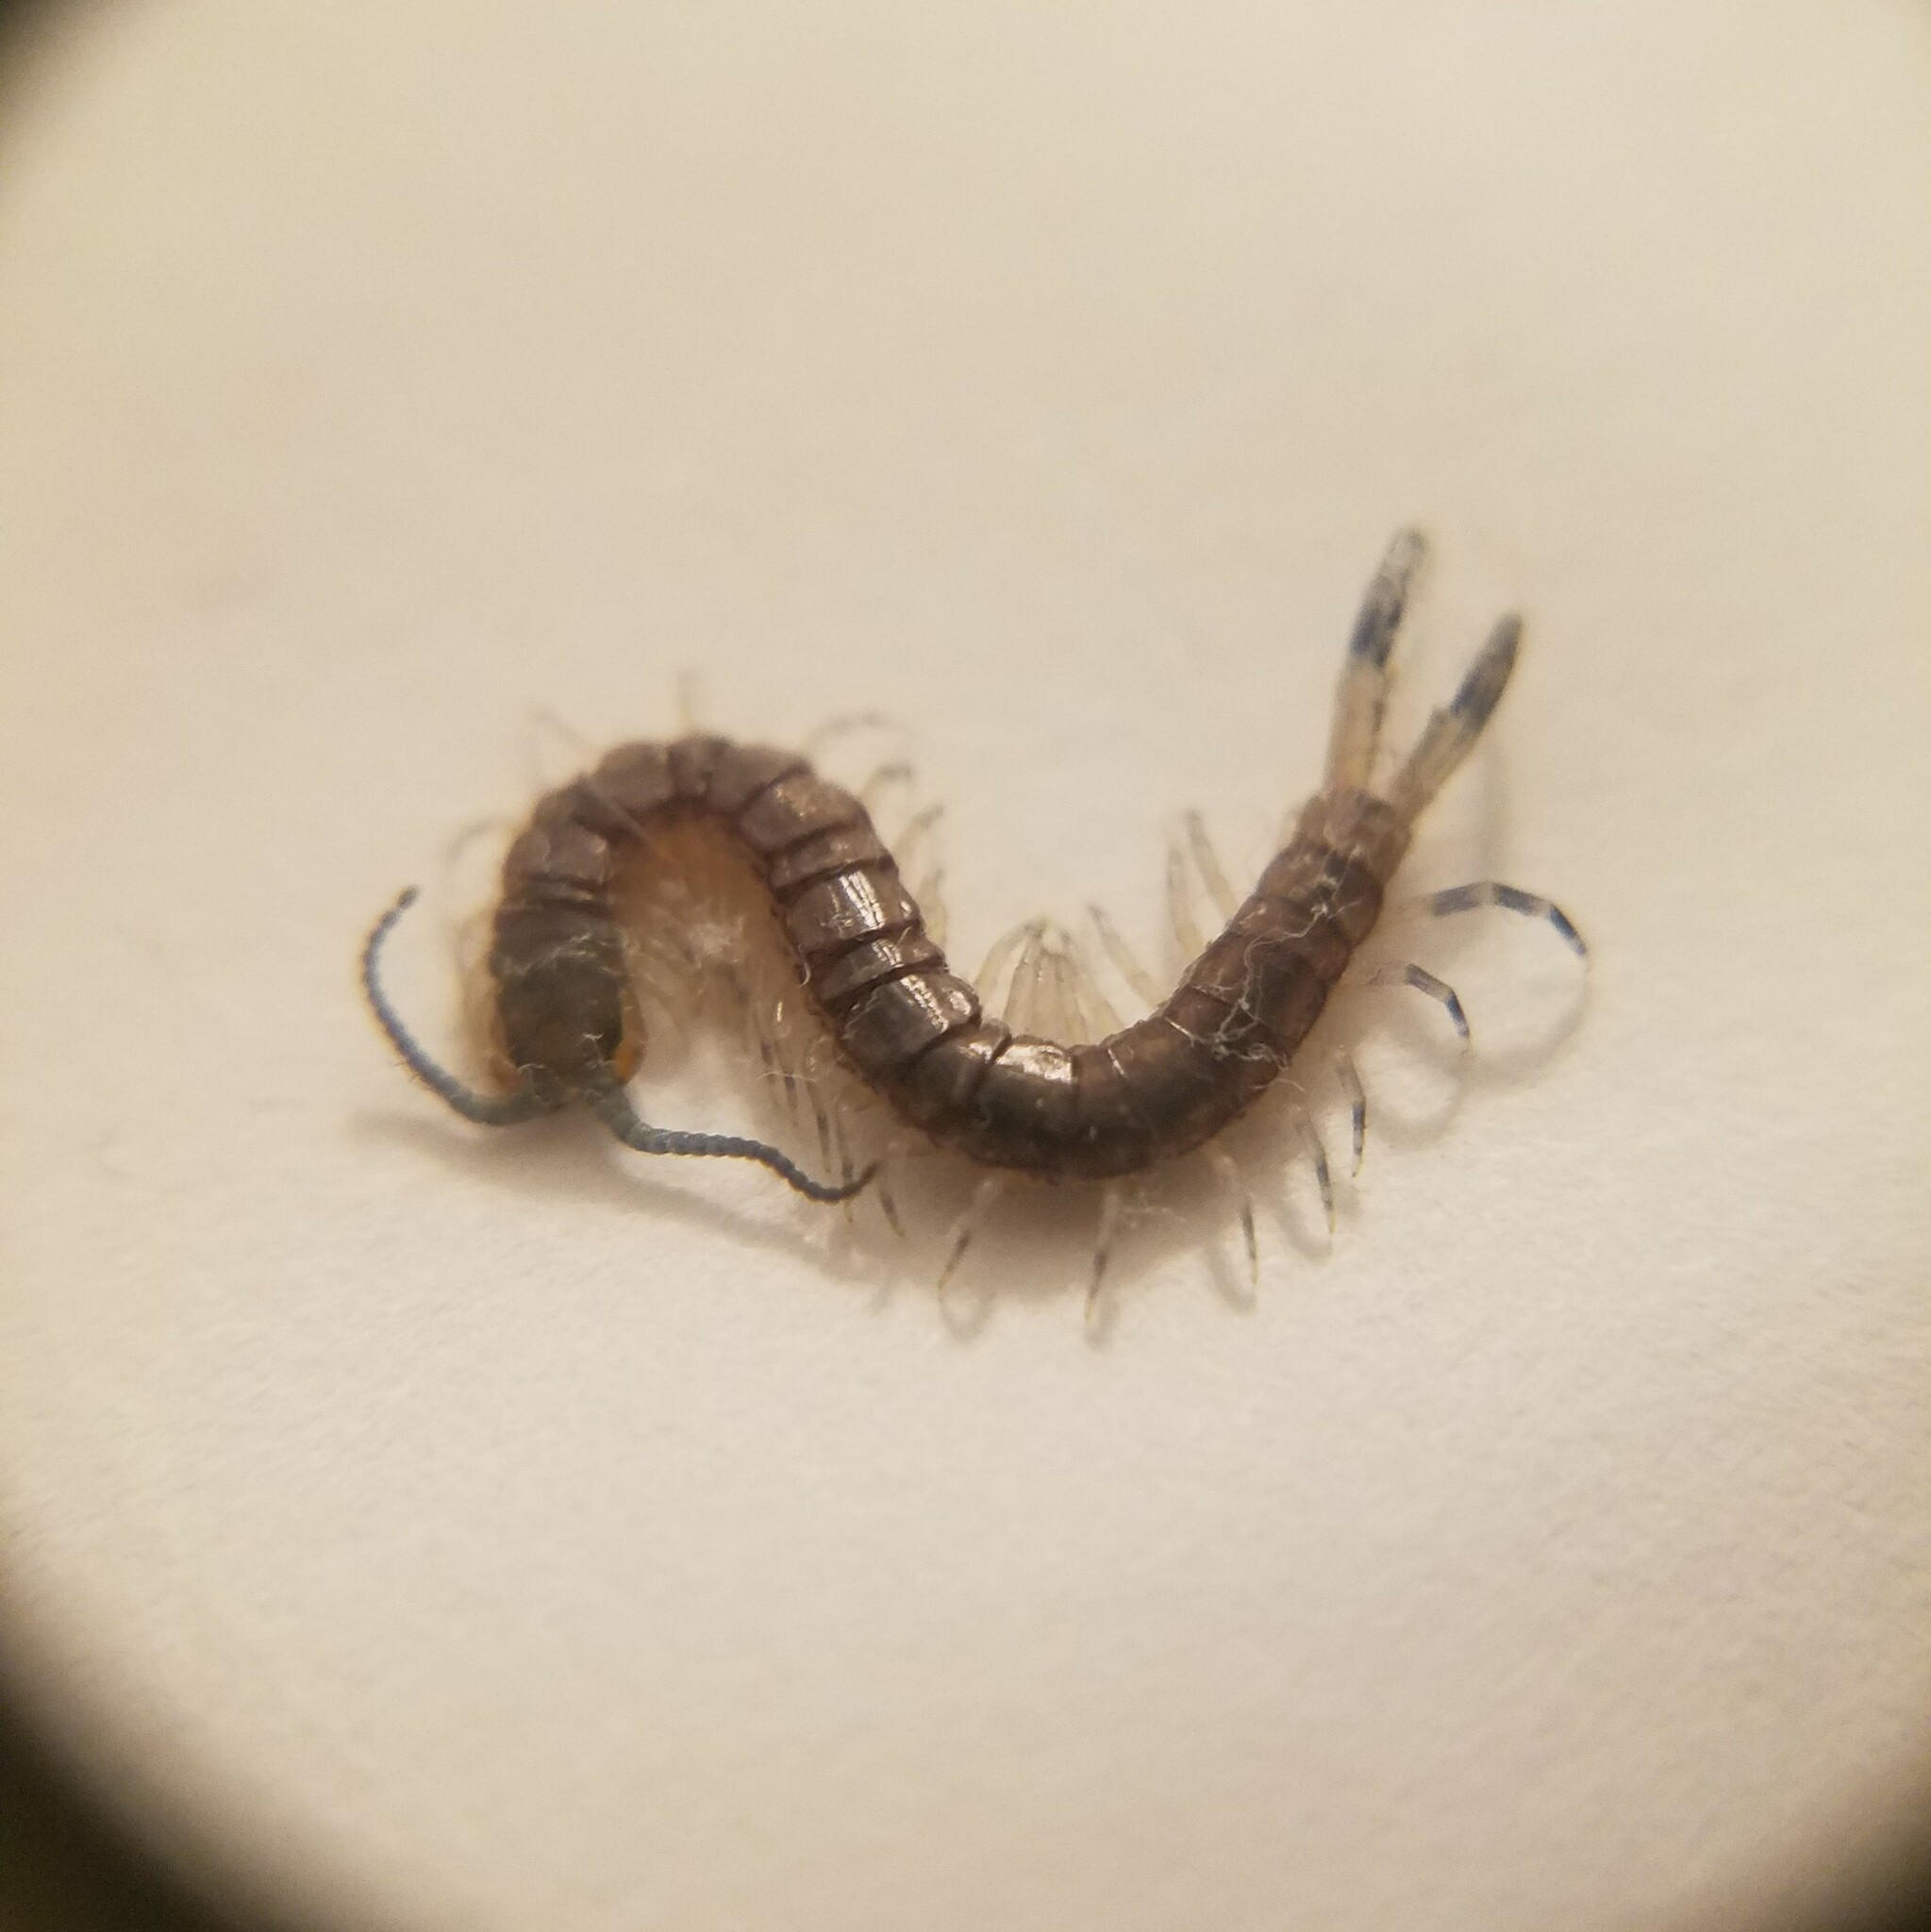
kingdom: Animalia
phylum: Arthropoda
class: Chilopoda
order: Scolopendromorpha
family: Scolopendridae
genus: Hemiscolopendra
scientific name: Hemiscolopendra marginata
